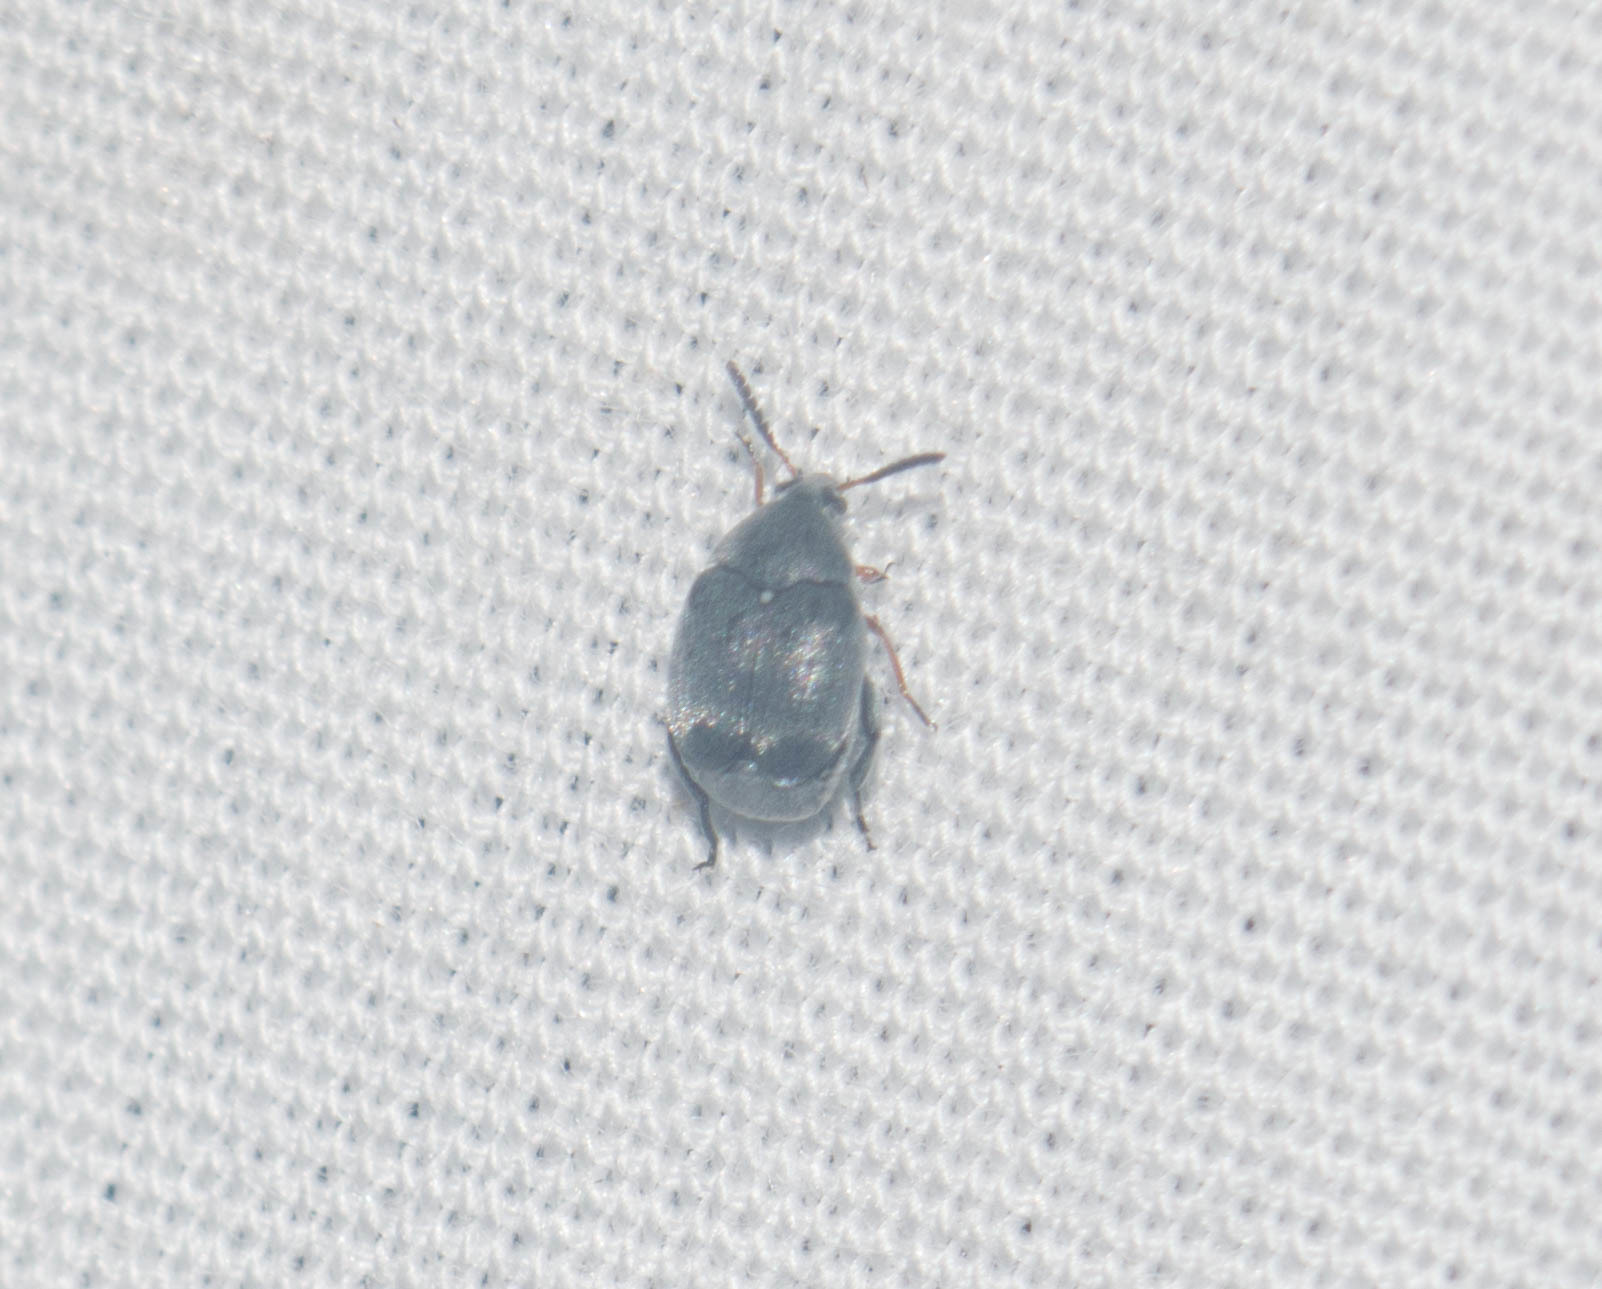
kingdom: Animalia
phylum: Arthropoda
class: Insecta
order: Coleoptera
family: Chrysomelidae
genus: Stator
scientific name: Stator pruininus
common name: Leaf beetle
